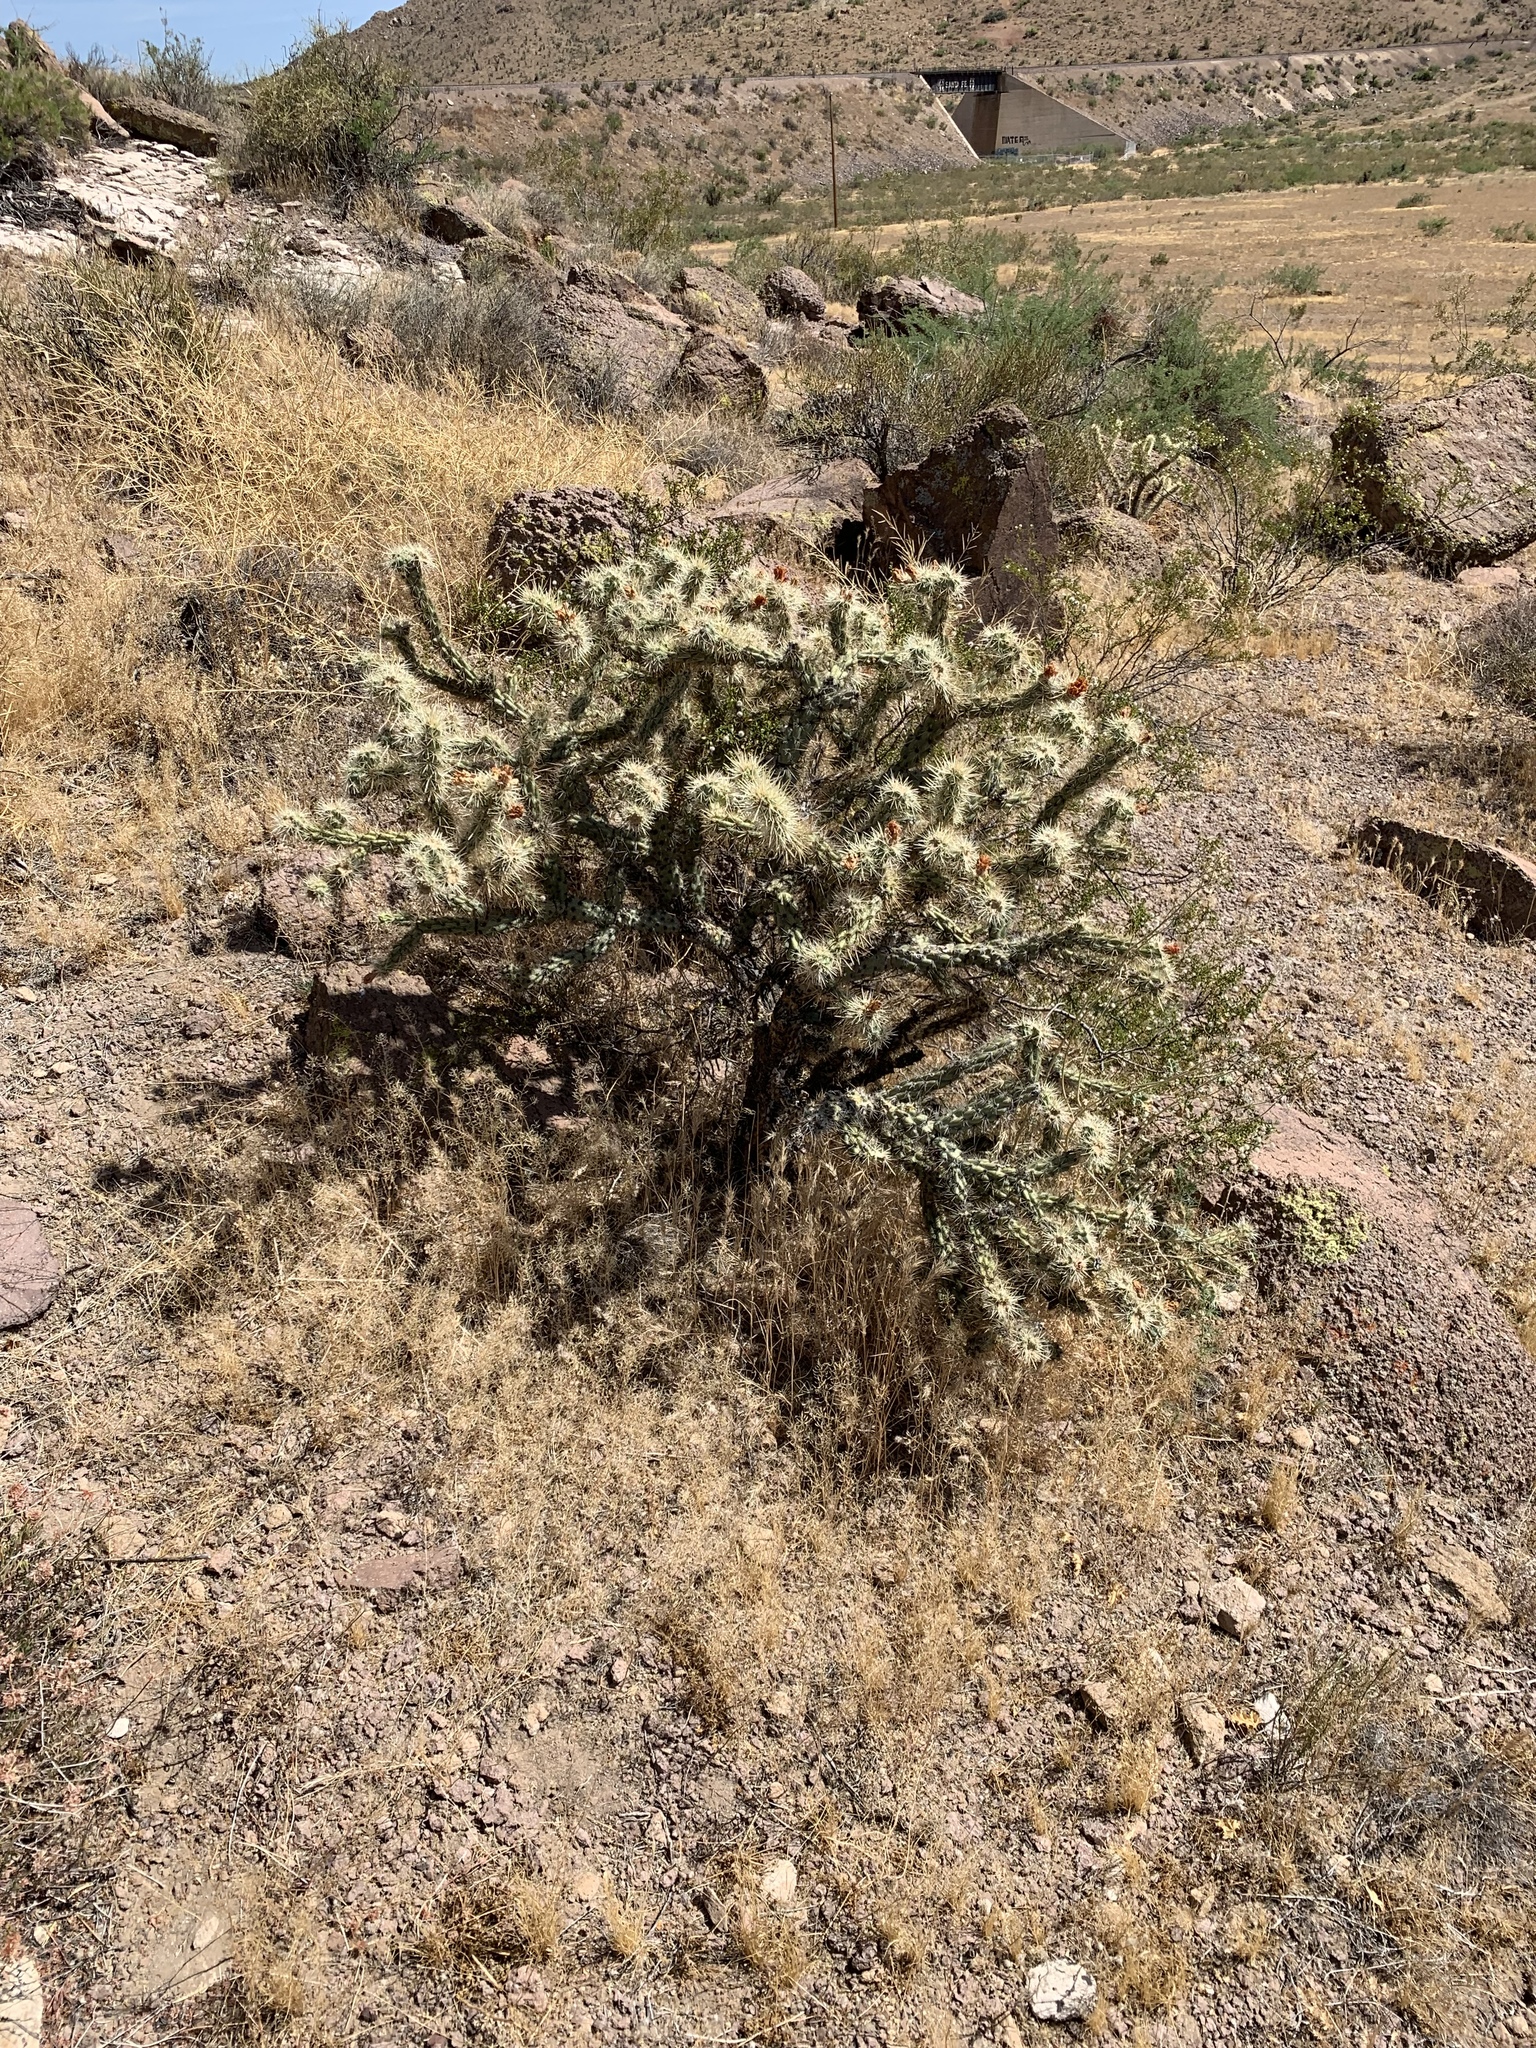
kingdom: Plantae
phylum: Tracheophyta
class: Magnoliopsida
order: Caryophyllales
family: Cactaceae
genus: Cylindropuntia
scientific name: Cylindropuntia acanthocarpa
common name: Buckhorn cholla
